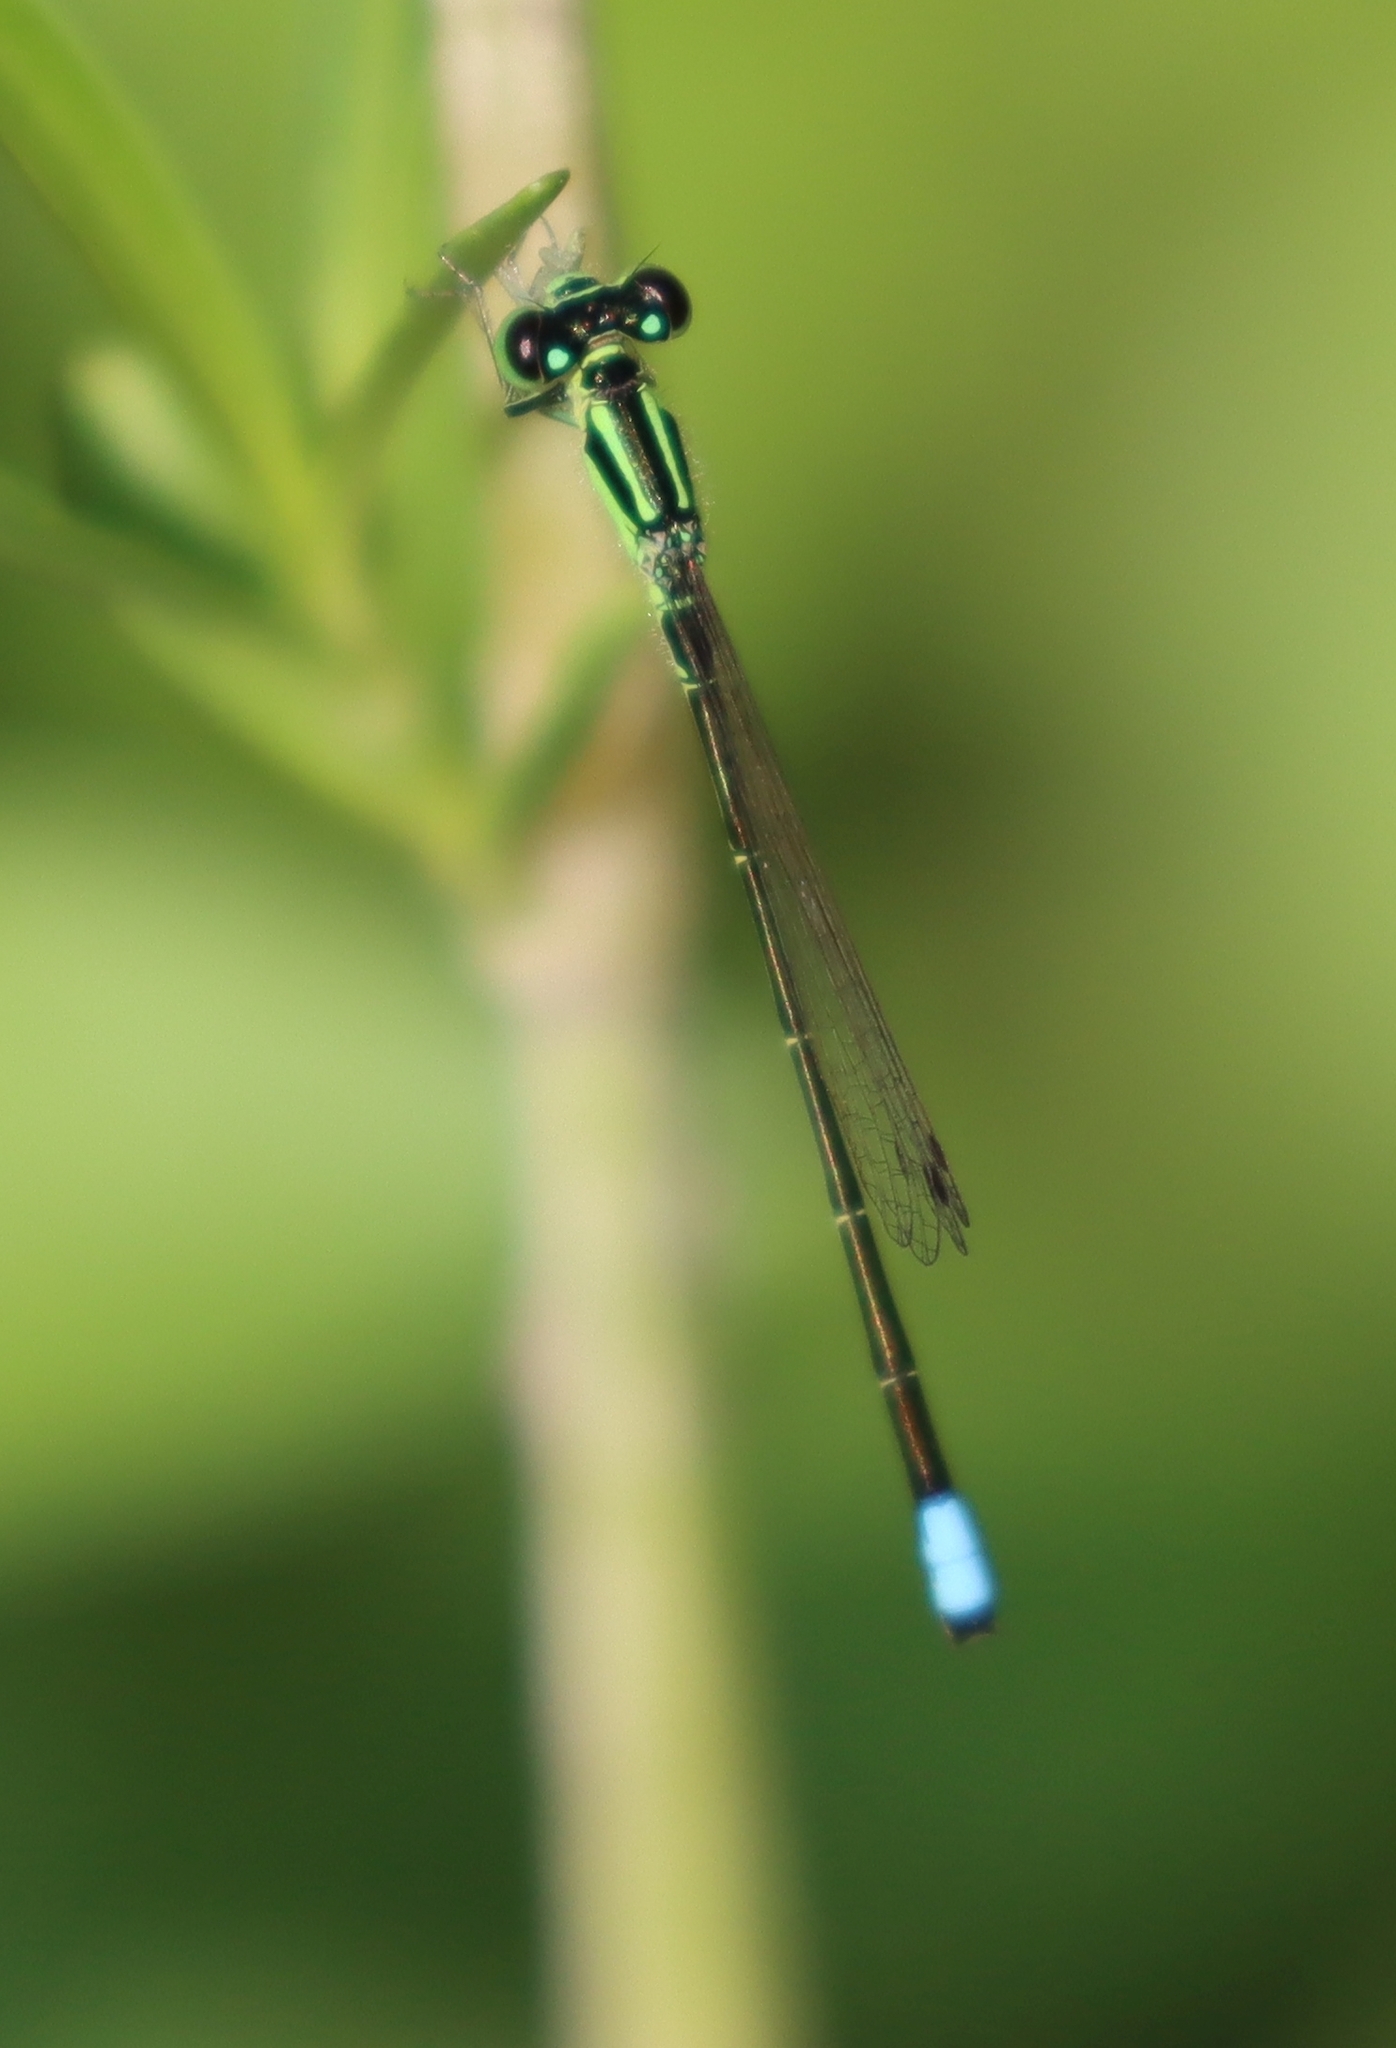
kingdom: Animalia
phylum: Arthropoda
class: Insecta
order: Odonata
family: Coenagrionidae
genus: Ischnura
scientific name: Ischnura verticalis
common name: Eastern forktail
